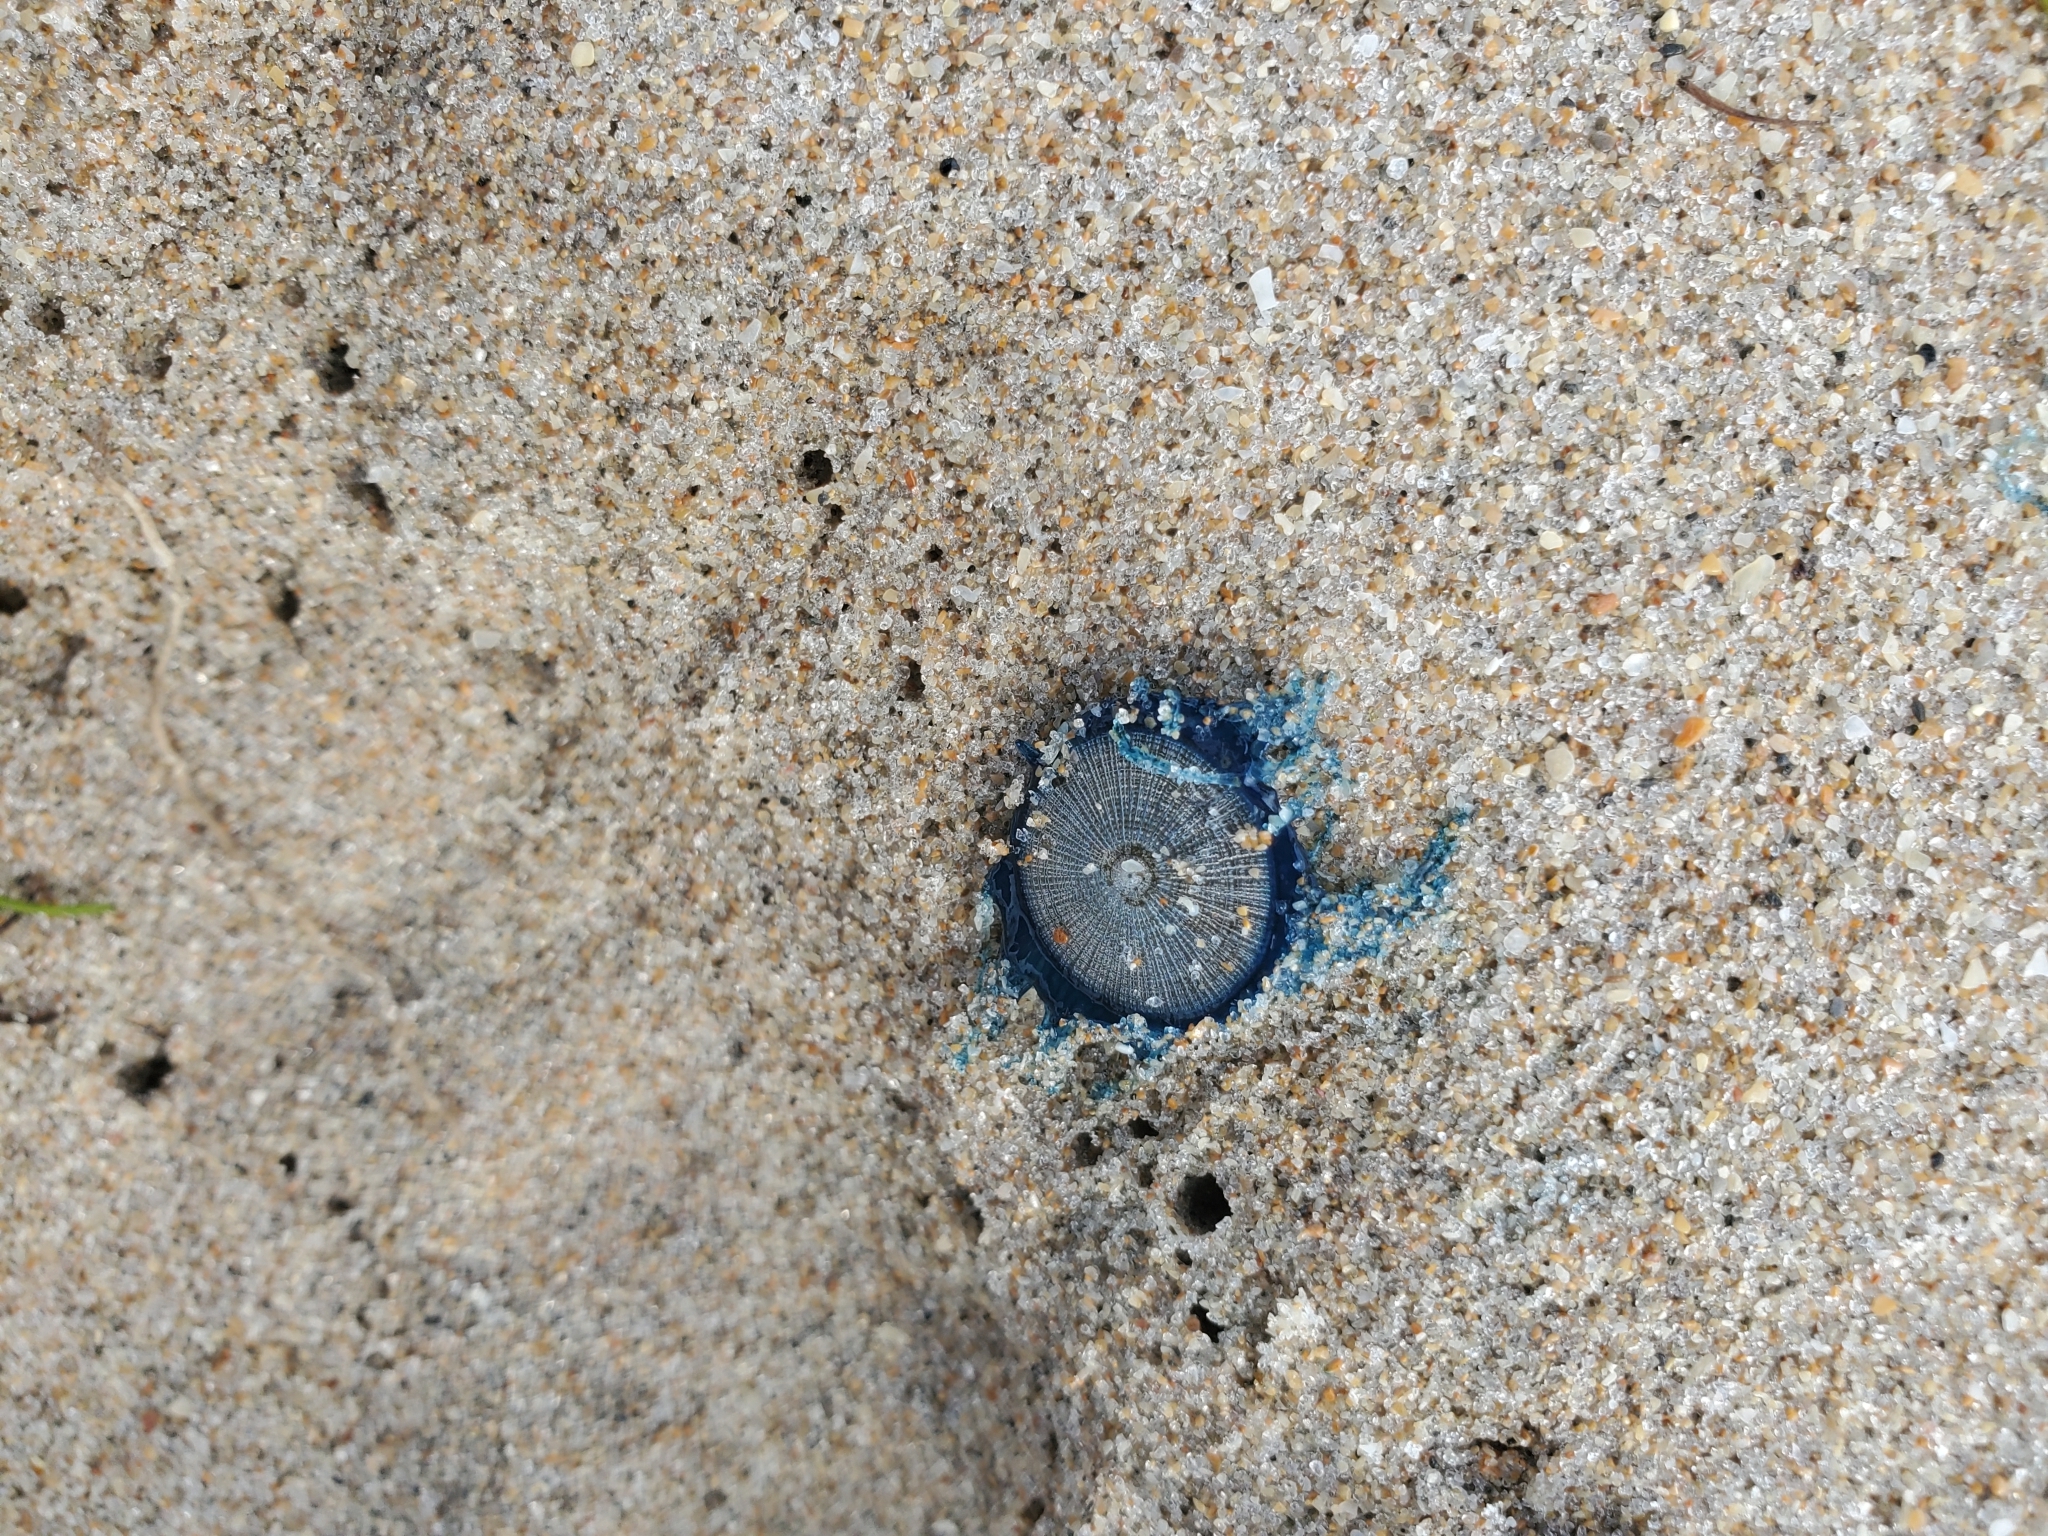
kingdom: Animalia
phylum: Cnidaria
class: Hydrozoa
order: Anthoathecata
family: Porpitidae
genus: Porpita
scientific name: Porpita porpita
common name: Blue button
